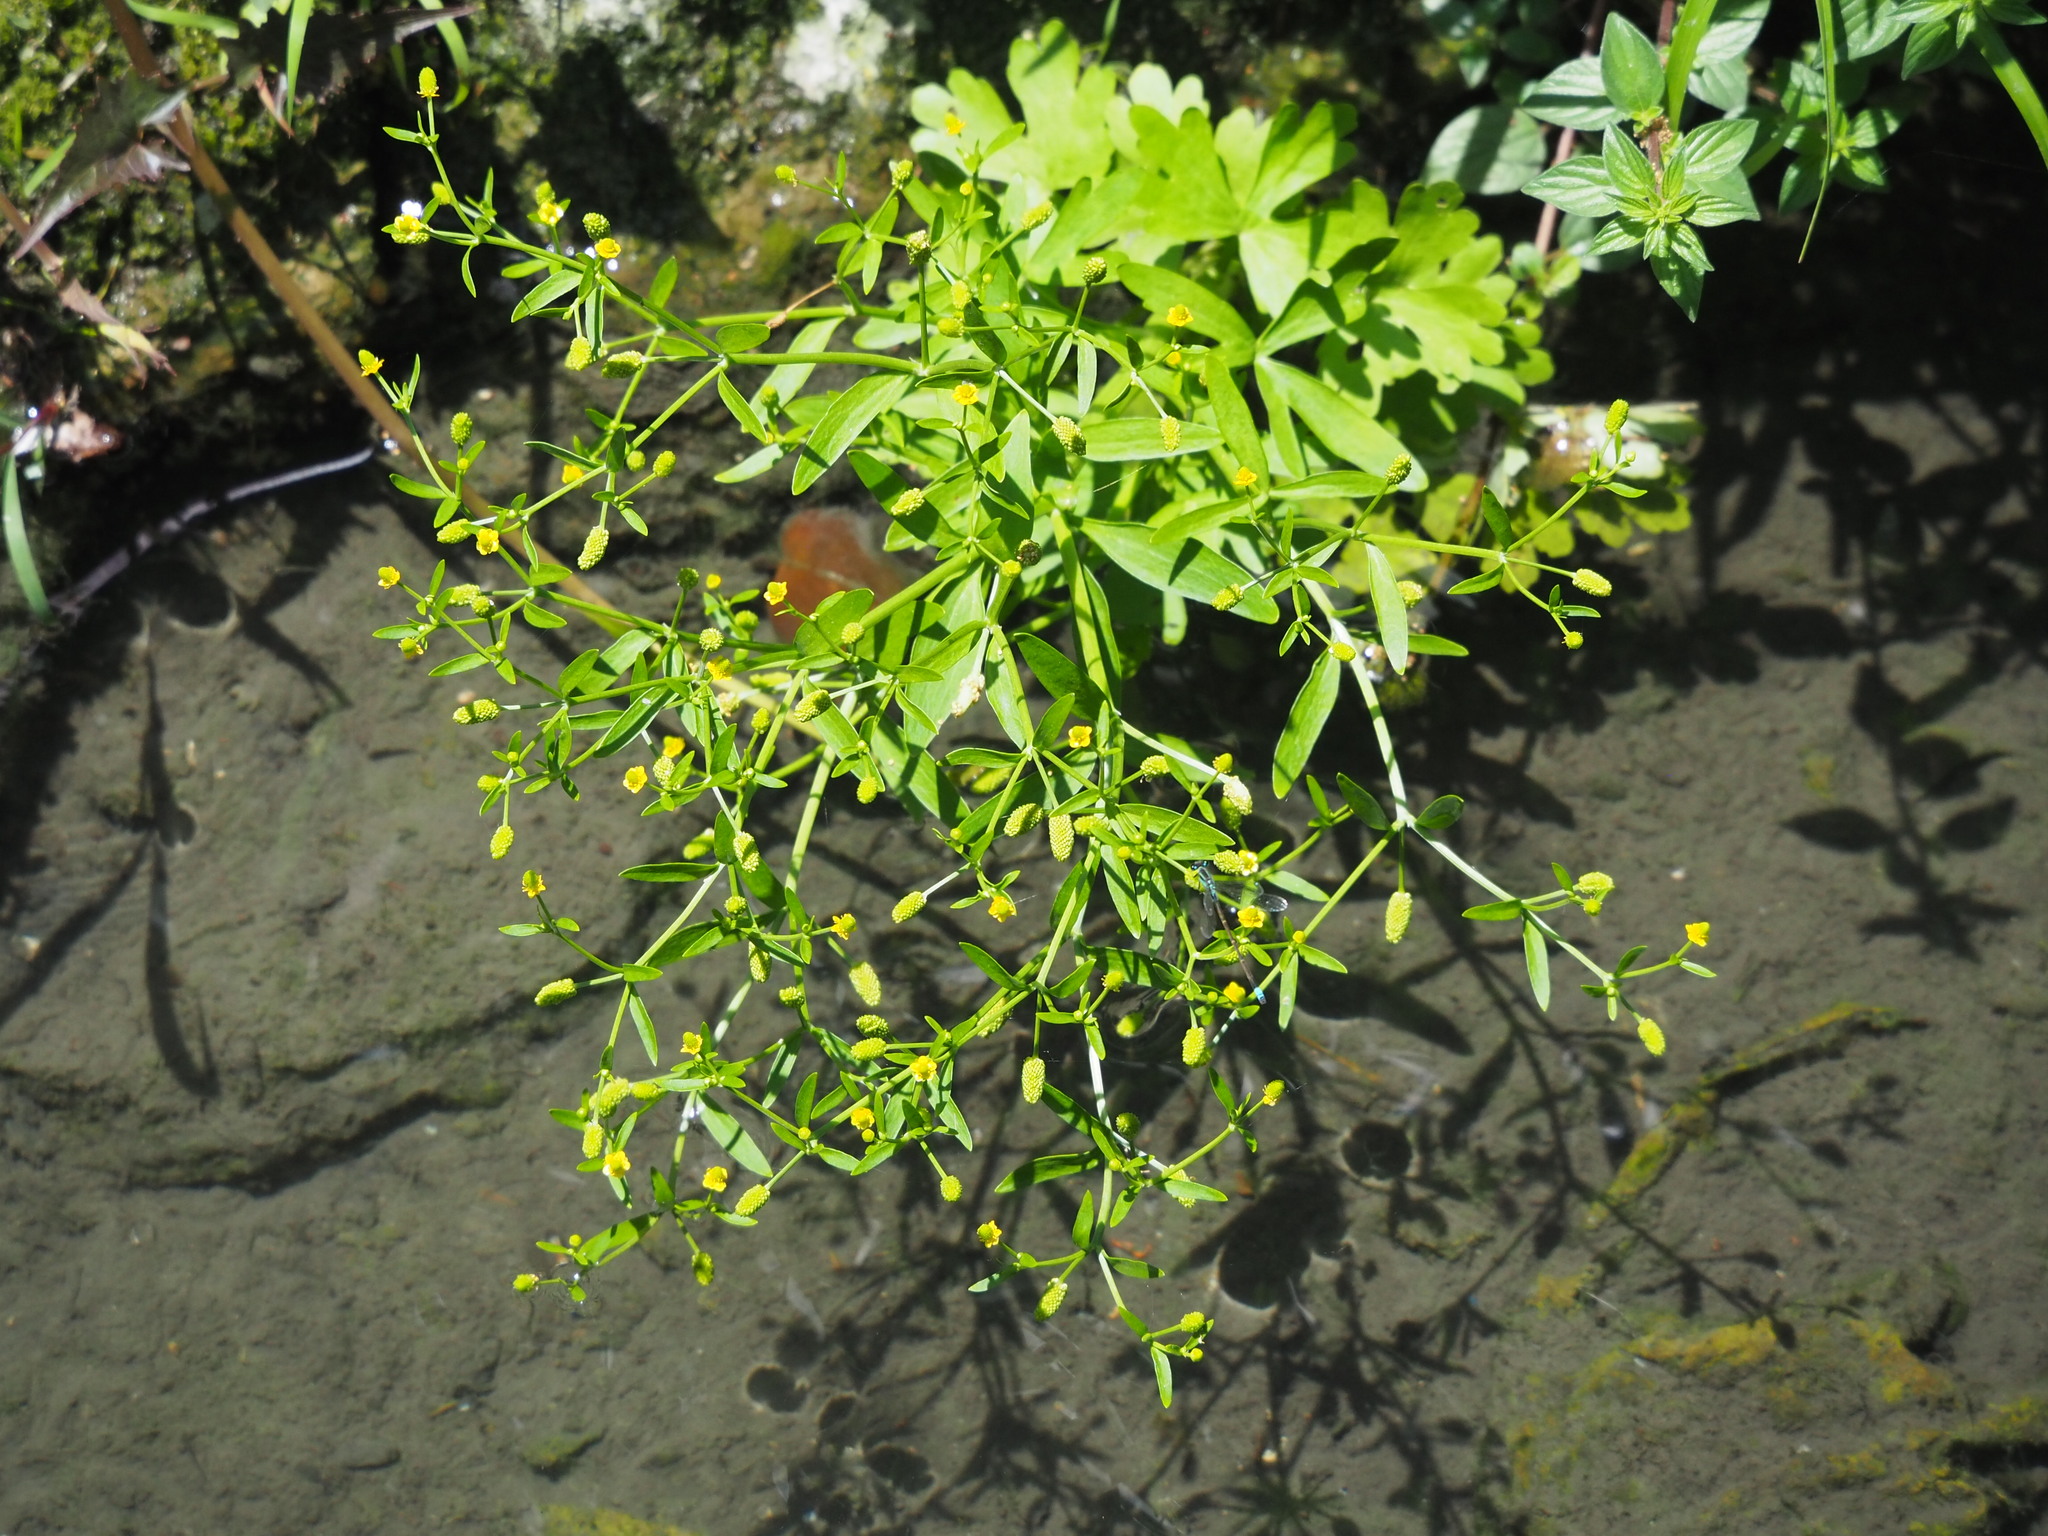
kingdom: Plantae
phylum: Tracheophyta
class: Magnoliopsida
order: Ranunculales
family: Ranunculaceae
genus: Ranunculus
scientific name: Ranunculus sceleratus
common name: Celery-leaved buttercup
